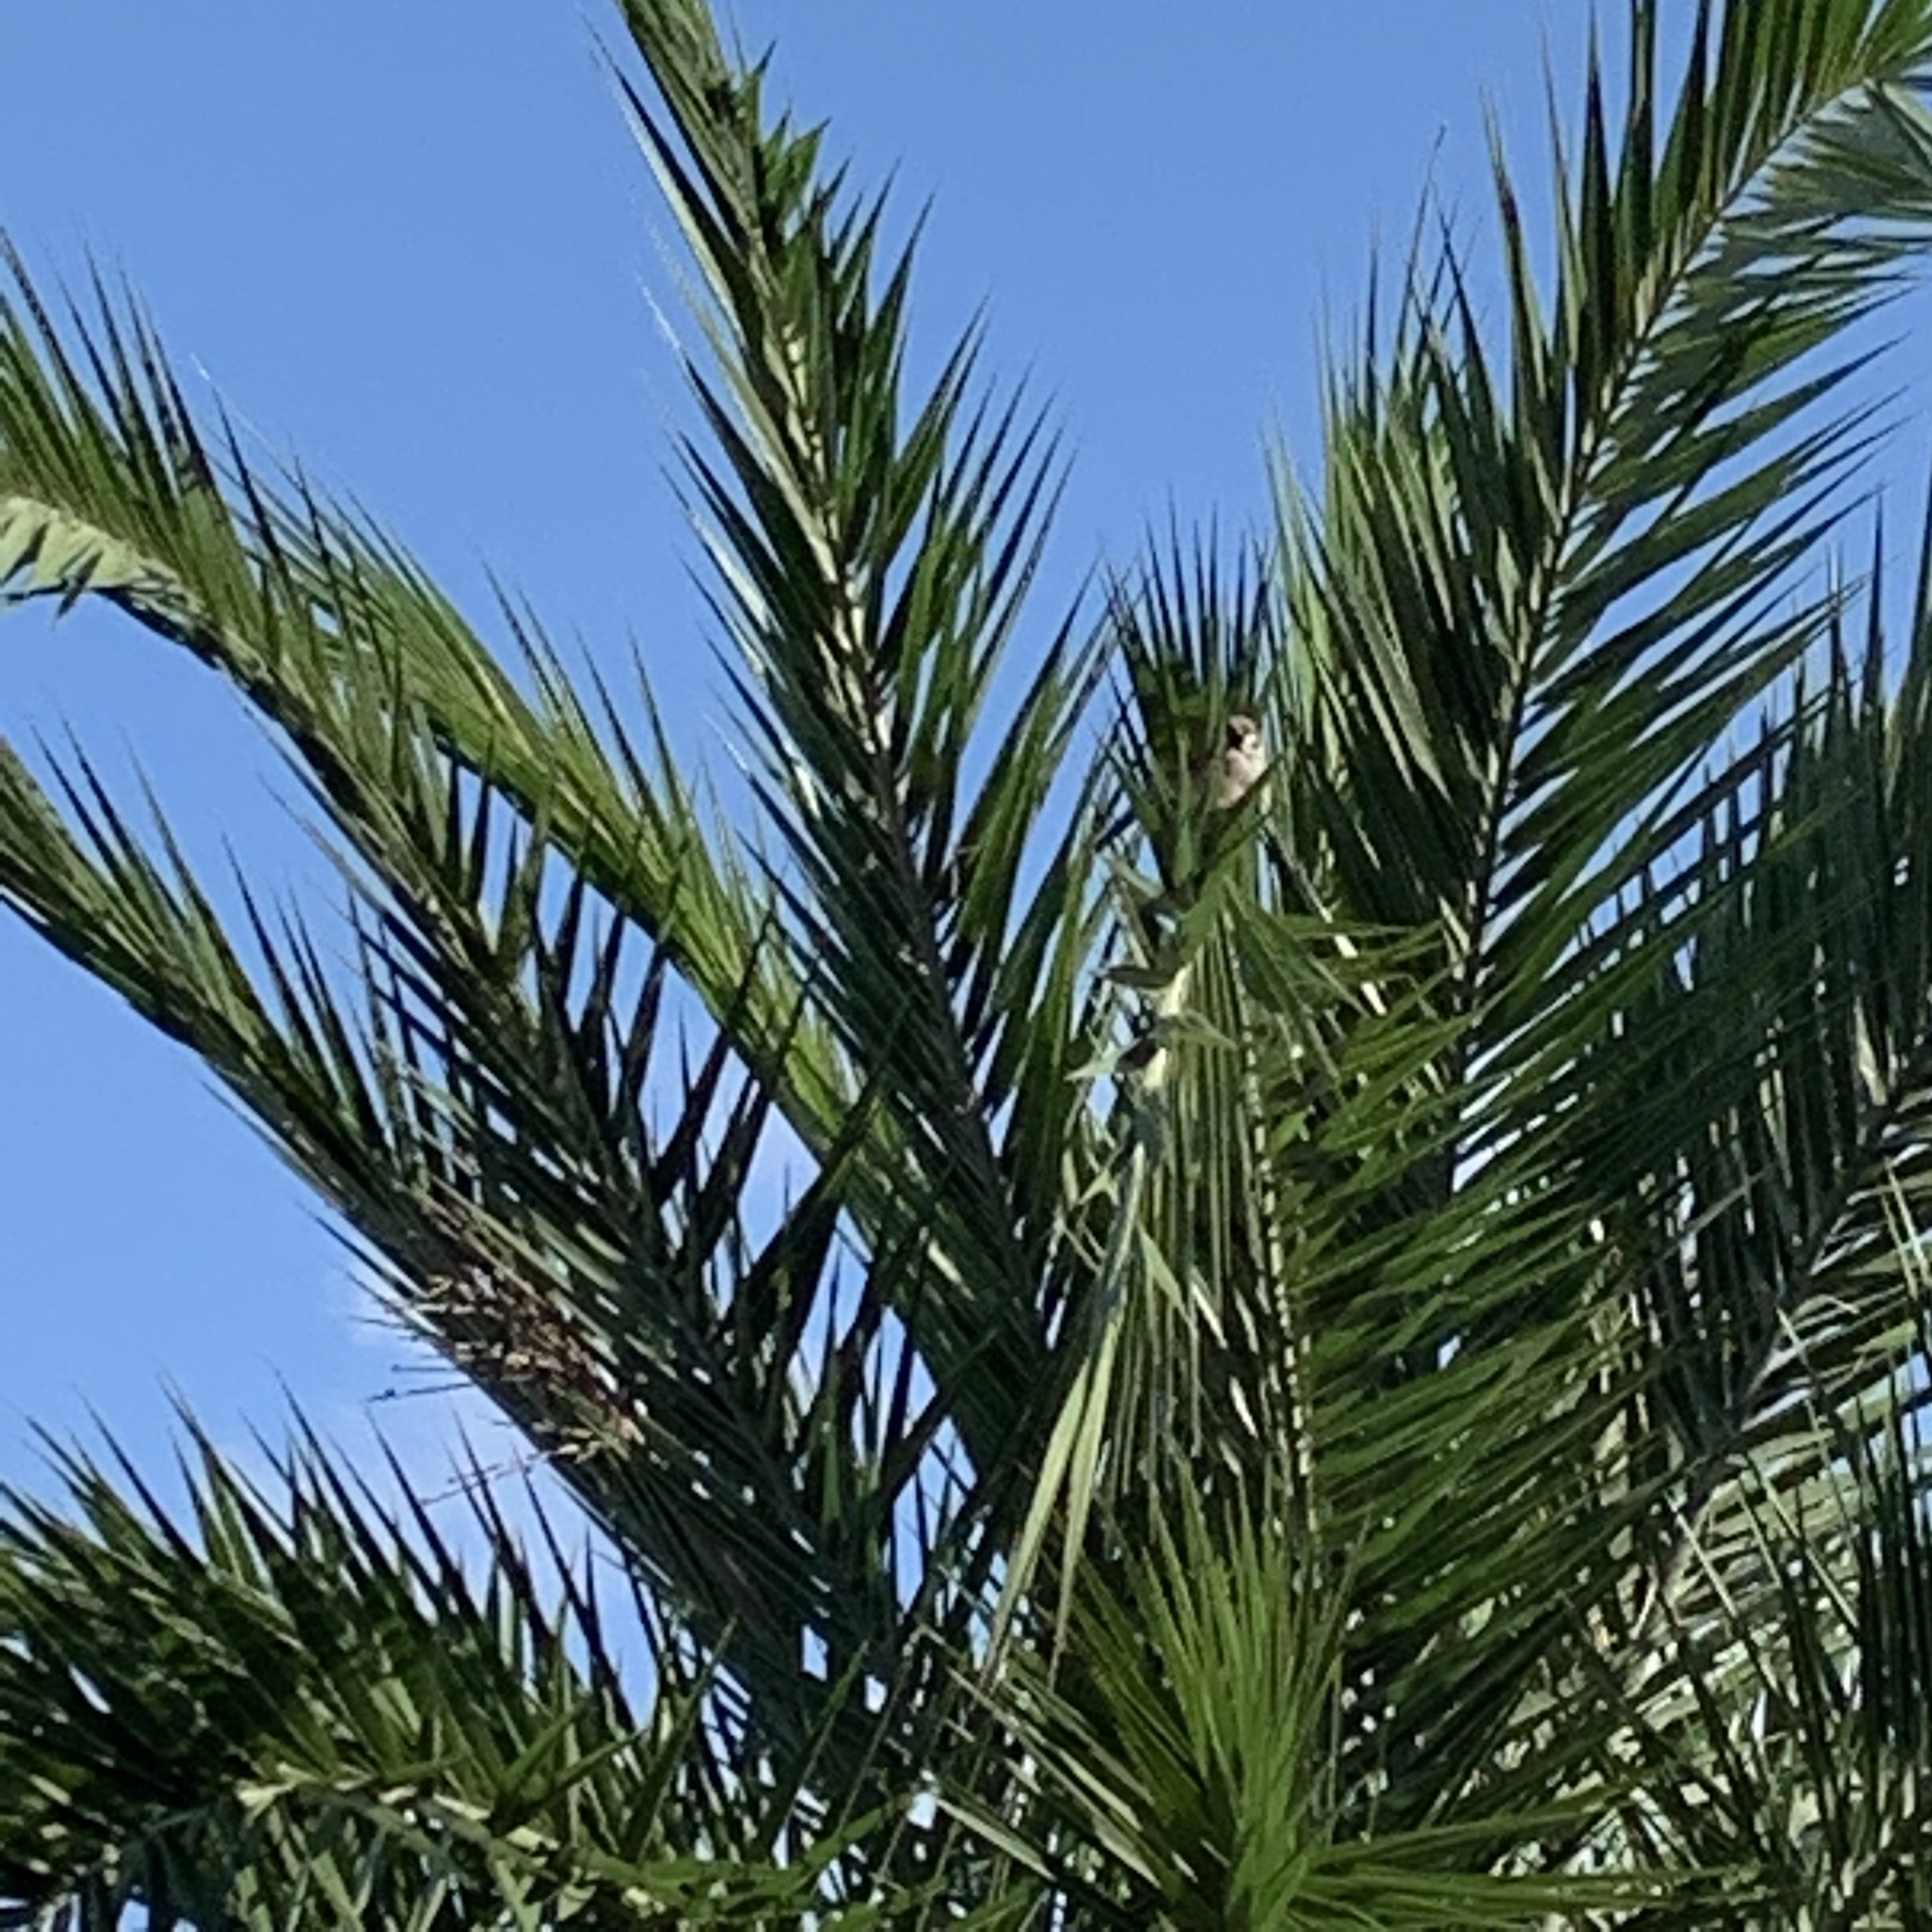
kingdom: Animalia
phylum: Chordata
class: Aves
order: Passeriformes
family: Passeridae
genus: Passer
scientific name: Passer montanus
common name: Eurasian tree sparrow
